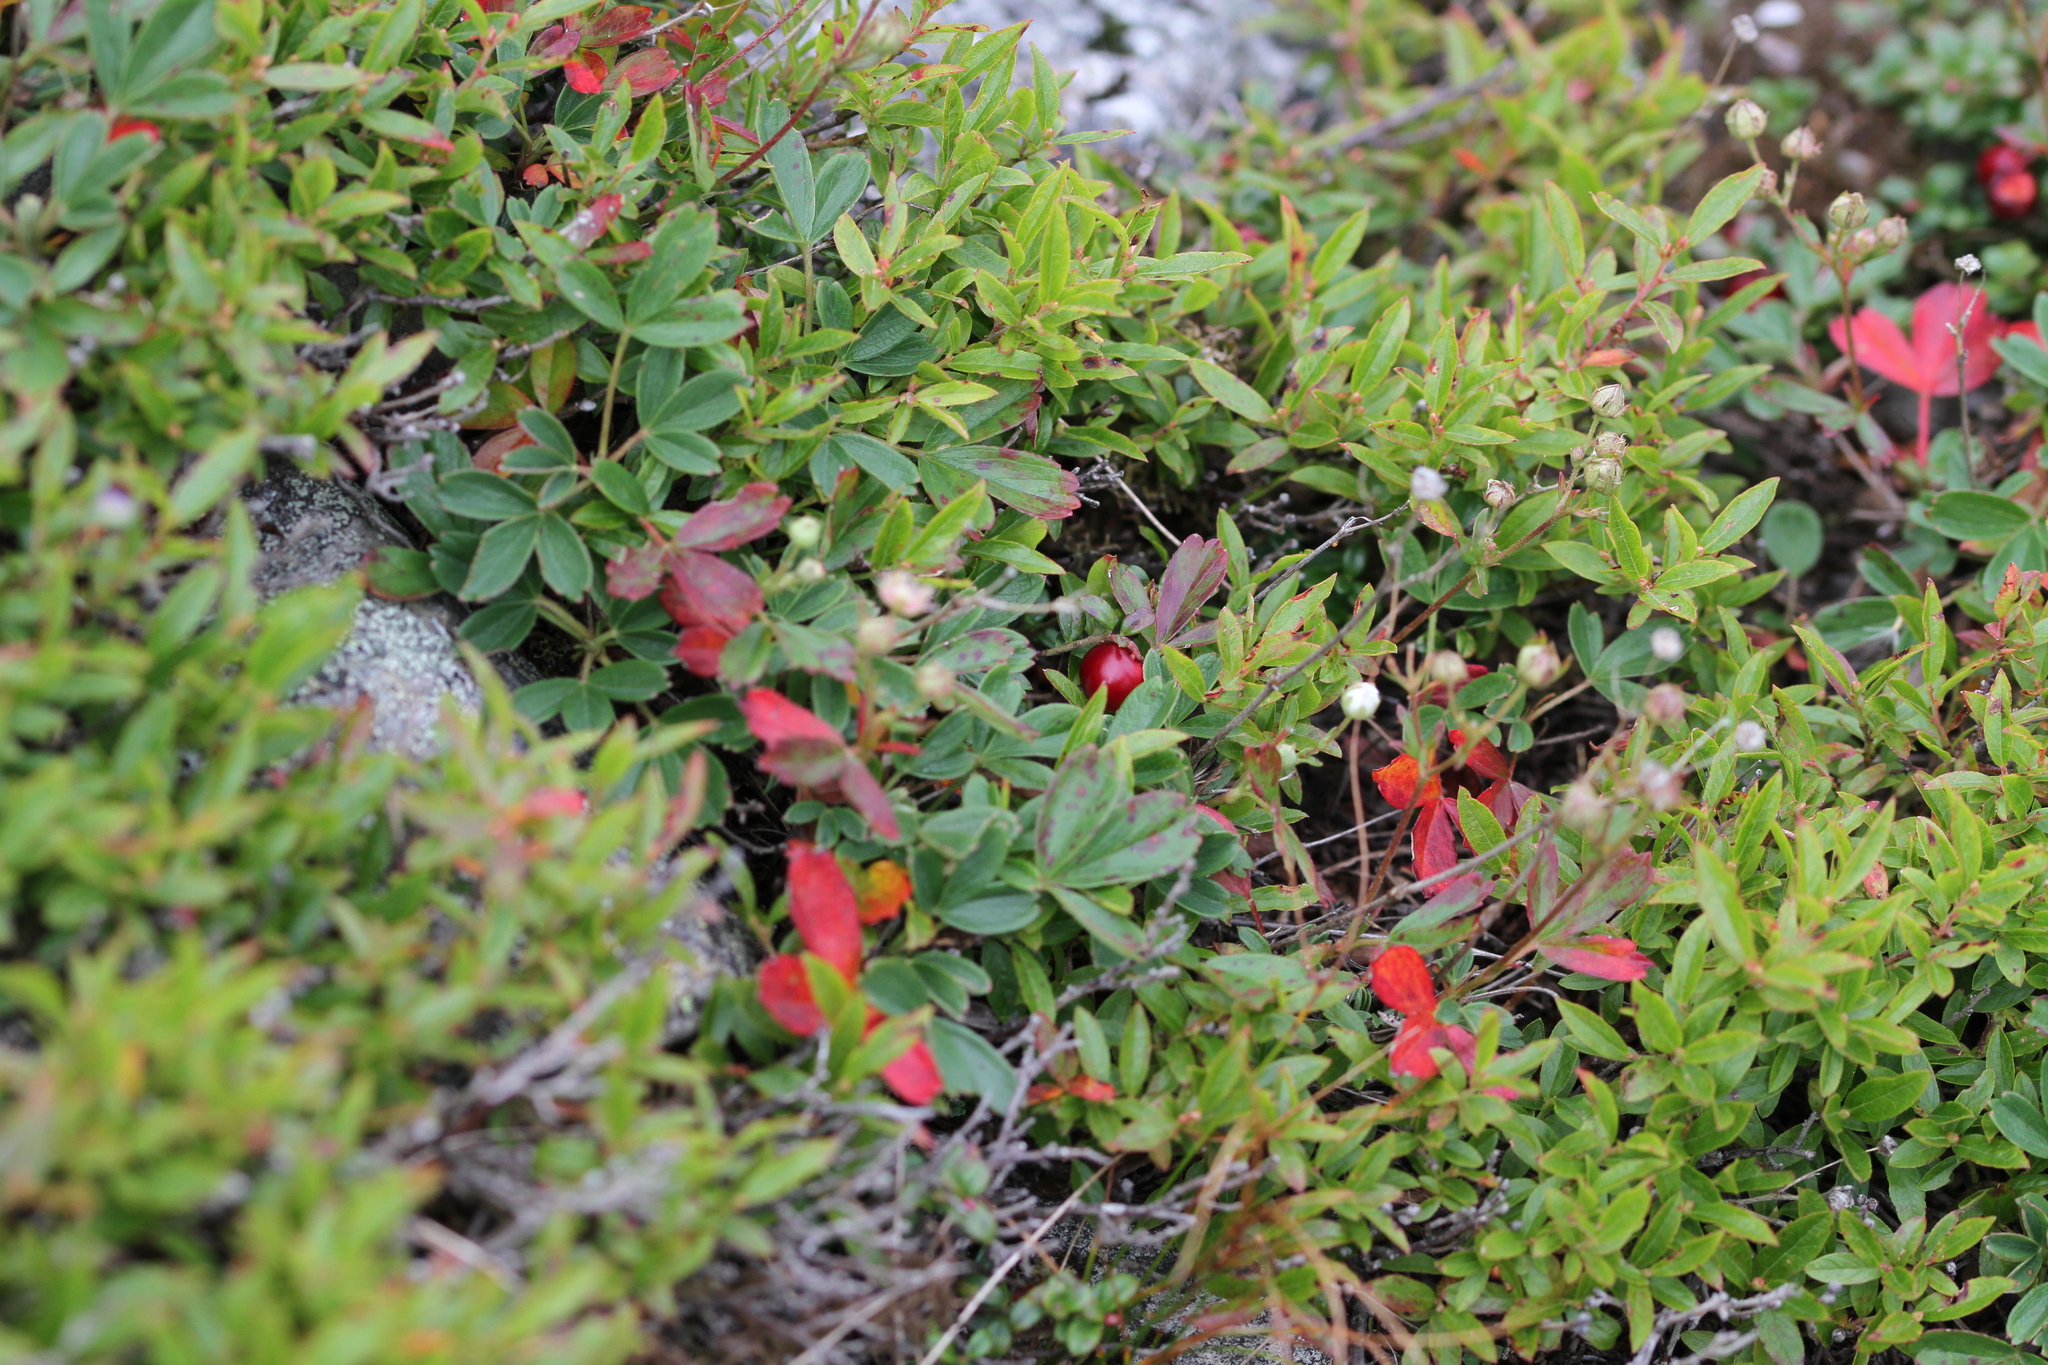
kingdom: Plantae
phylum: Tracheophyta
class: Magnoliopsida
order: Rosales
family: Rosaceae
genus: Sibbaldia
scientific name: Sibbaldia tridentata
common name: Three-toothed cinquefoil
